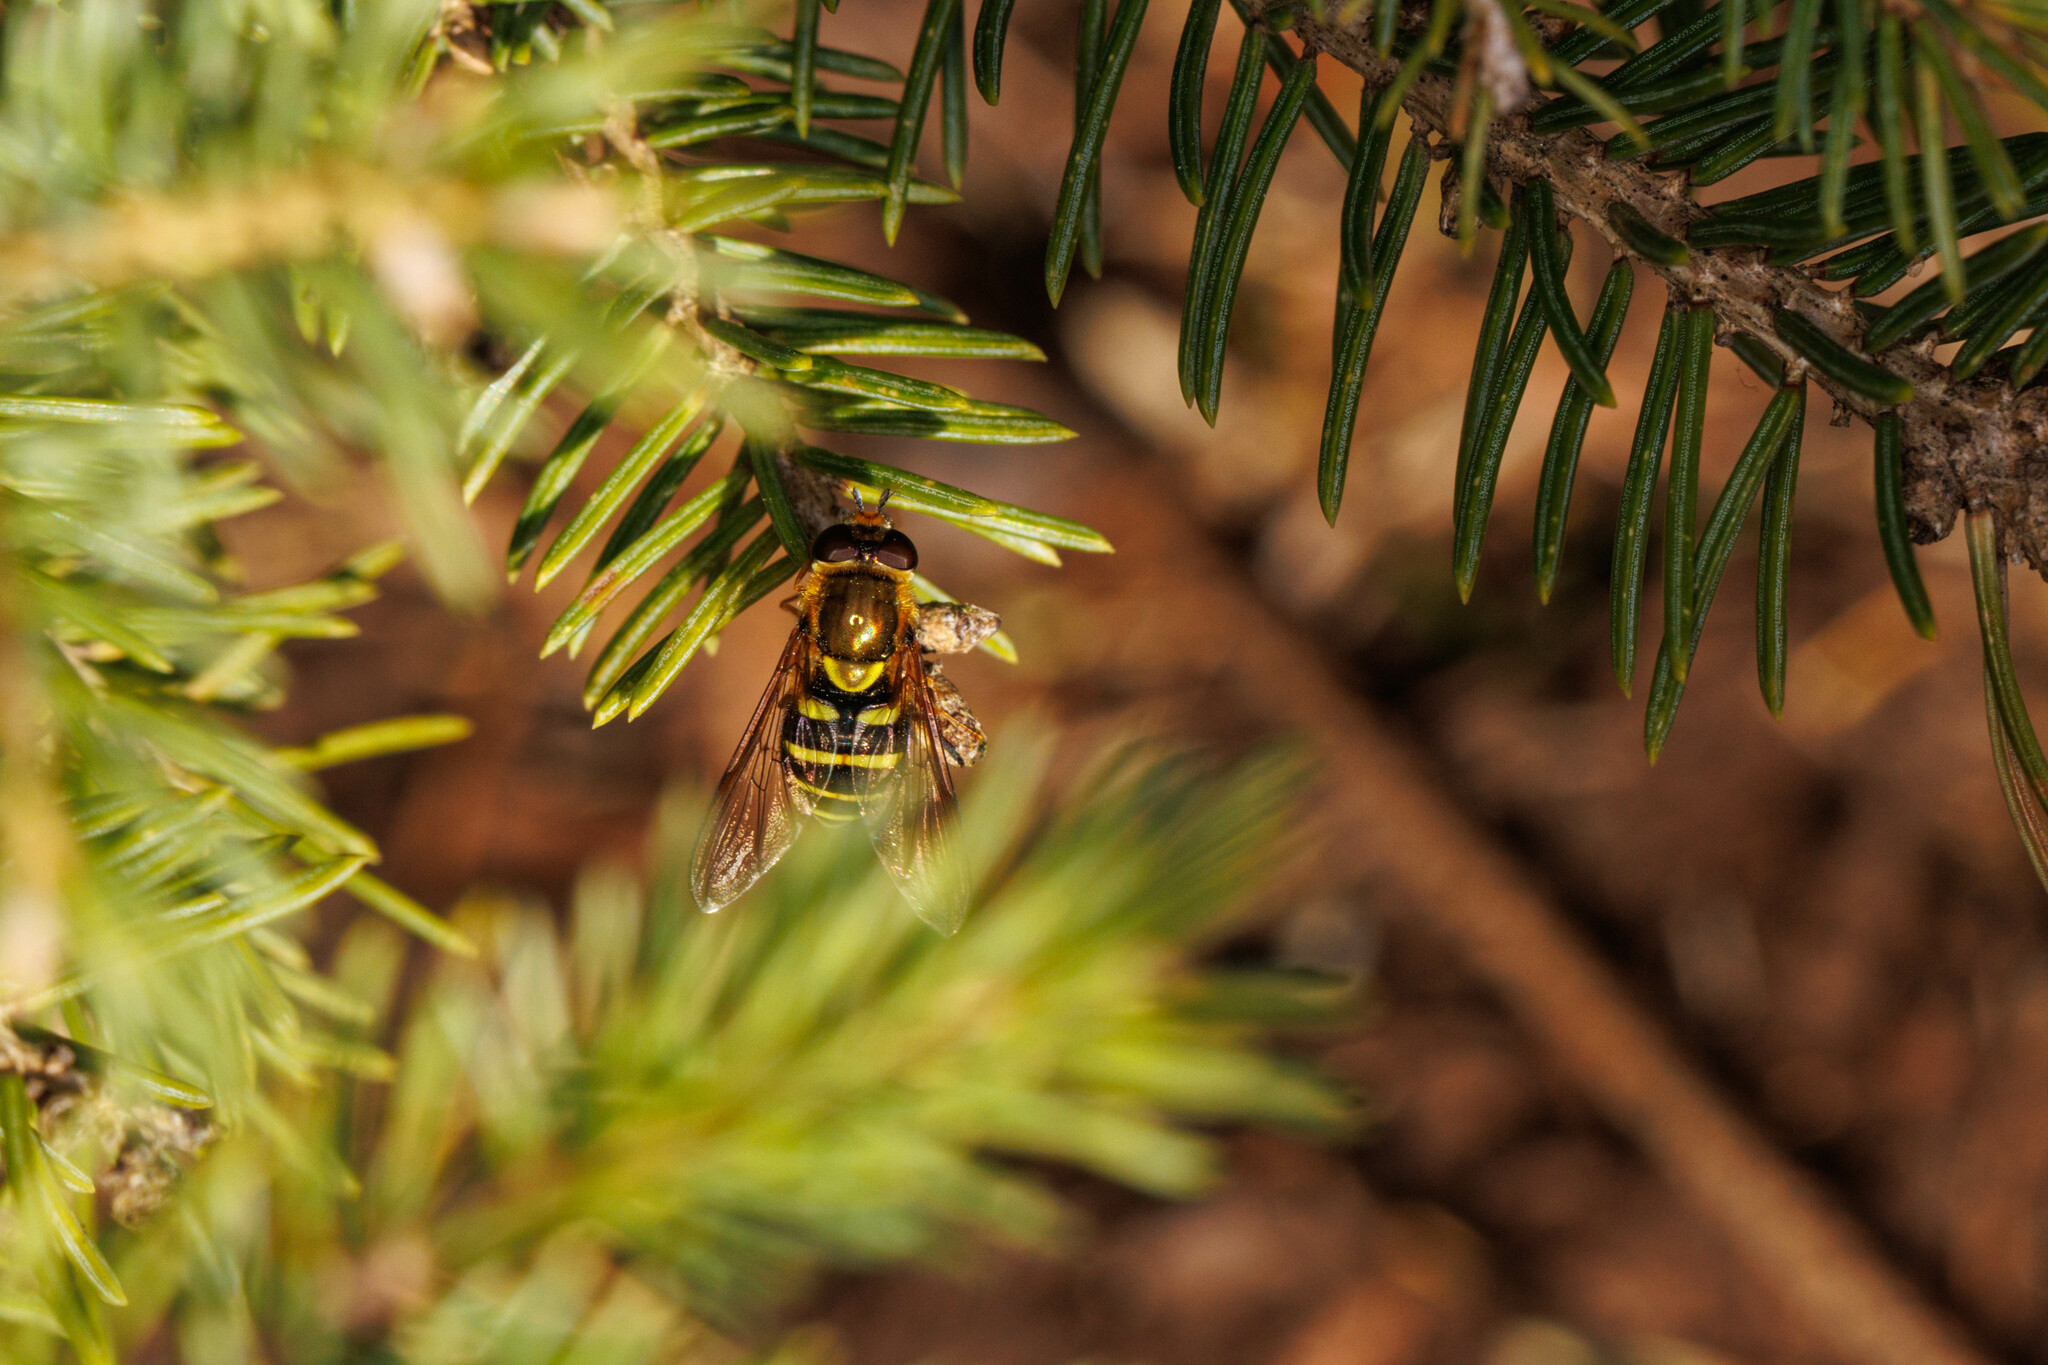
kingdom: Animalia
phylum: Arthropoda
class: Insecta
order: Diptera
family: Syrphidae
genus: Syrphus
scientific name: Syrphus opinator
